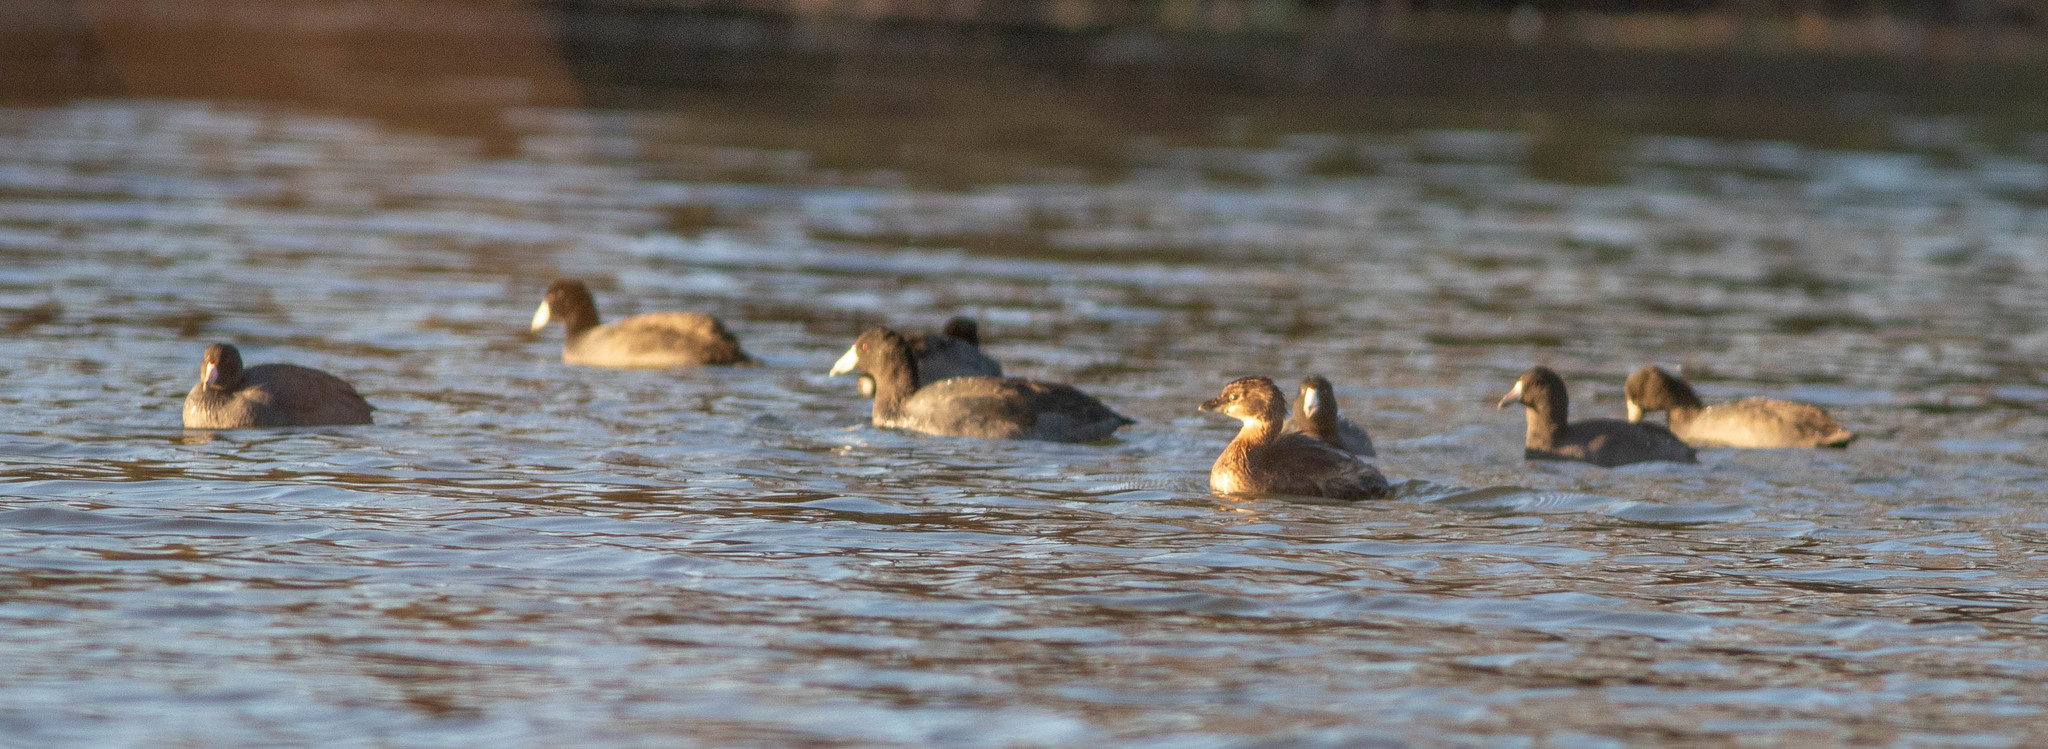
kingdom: Animalia
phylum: Chordata
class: Aves
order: Podicipediformes
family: Podicipedidae
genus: Podilymbus
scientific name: Podilymbus podiceps
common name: Pied-billed grebe
